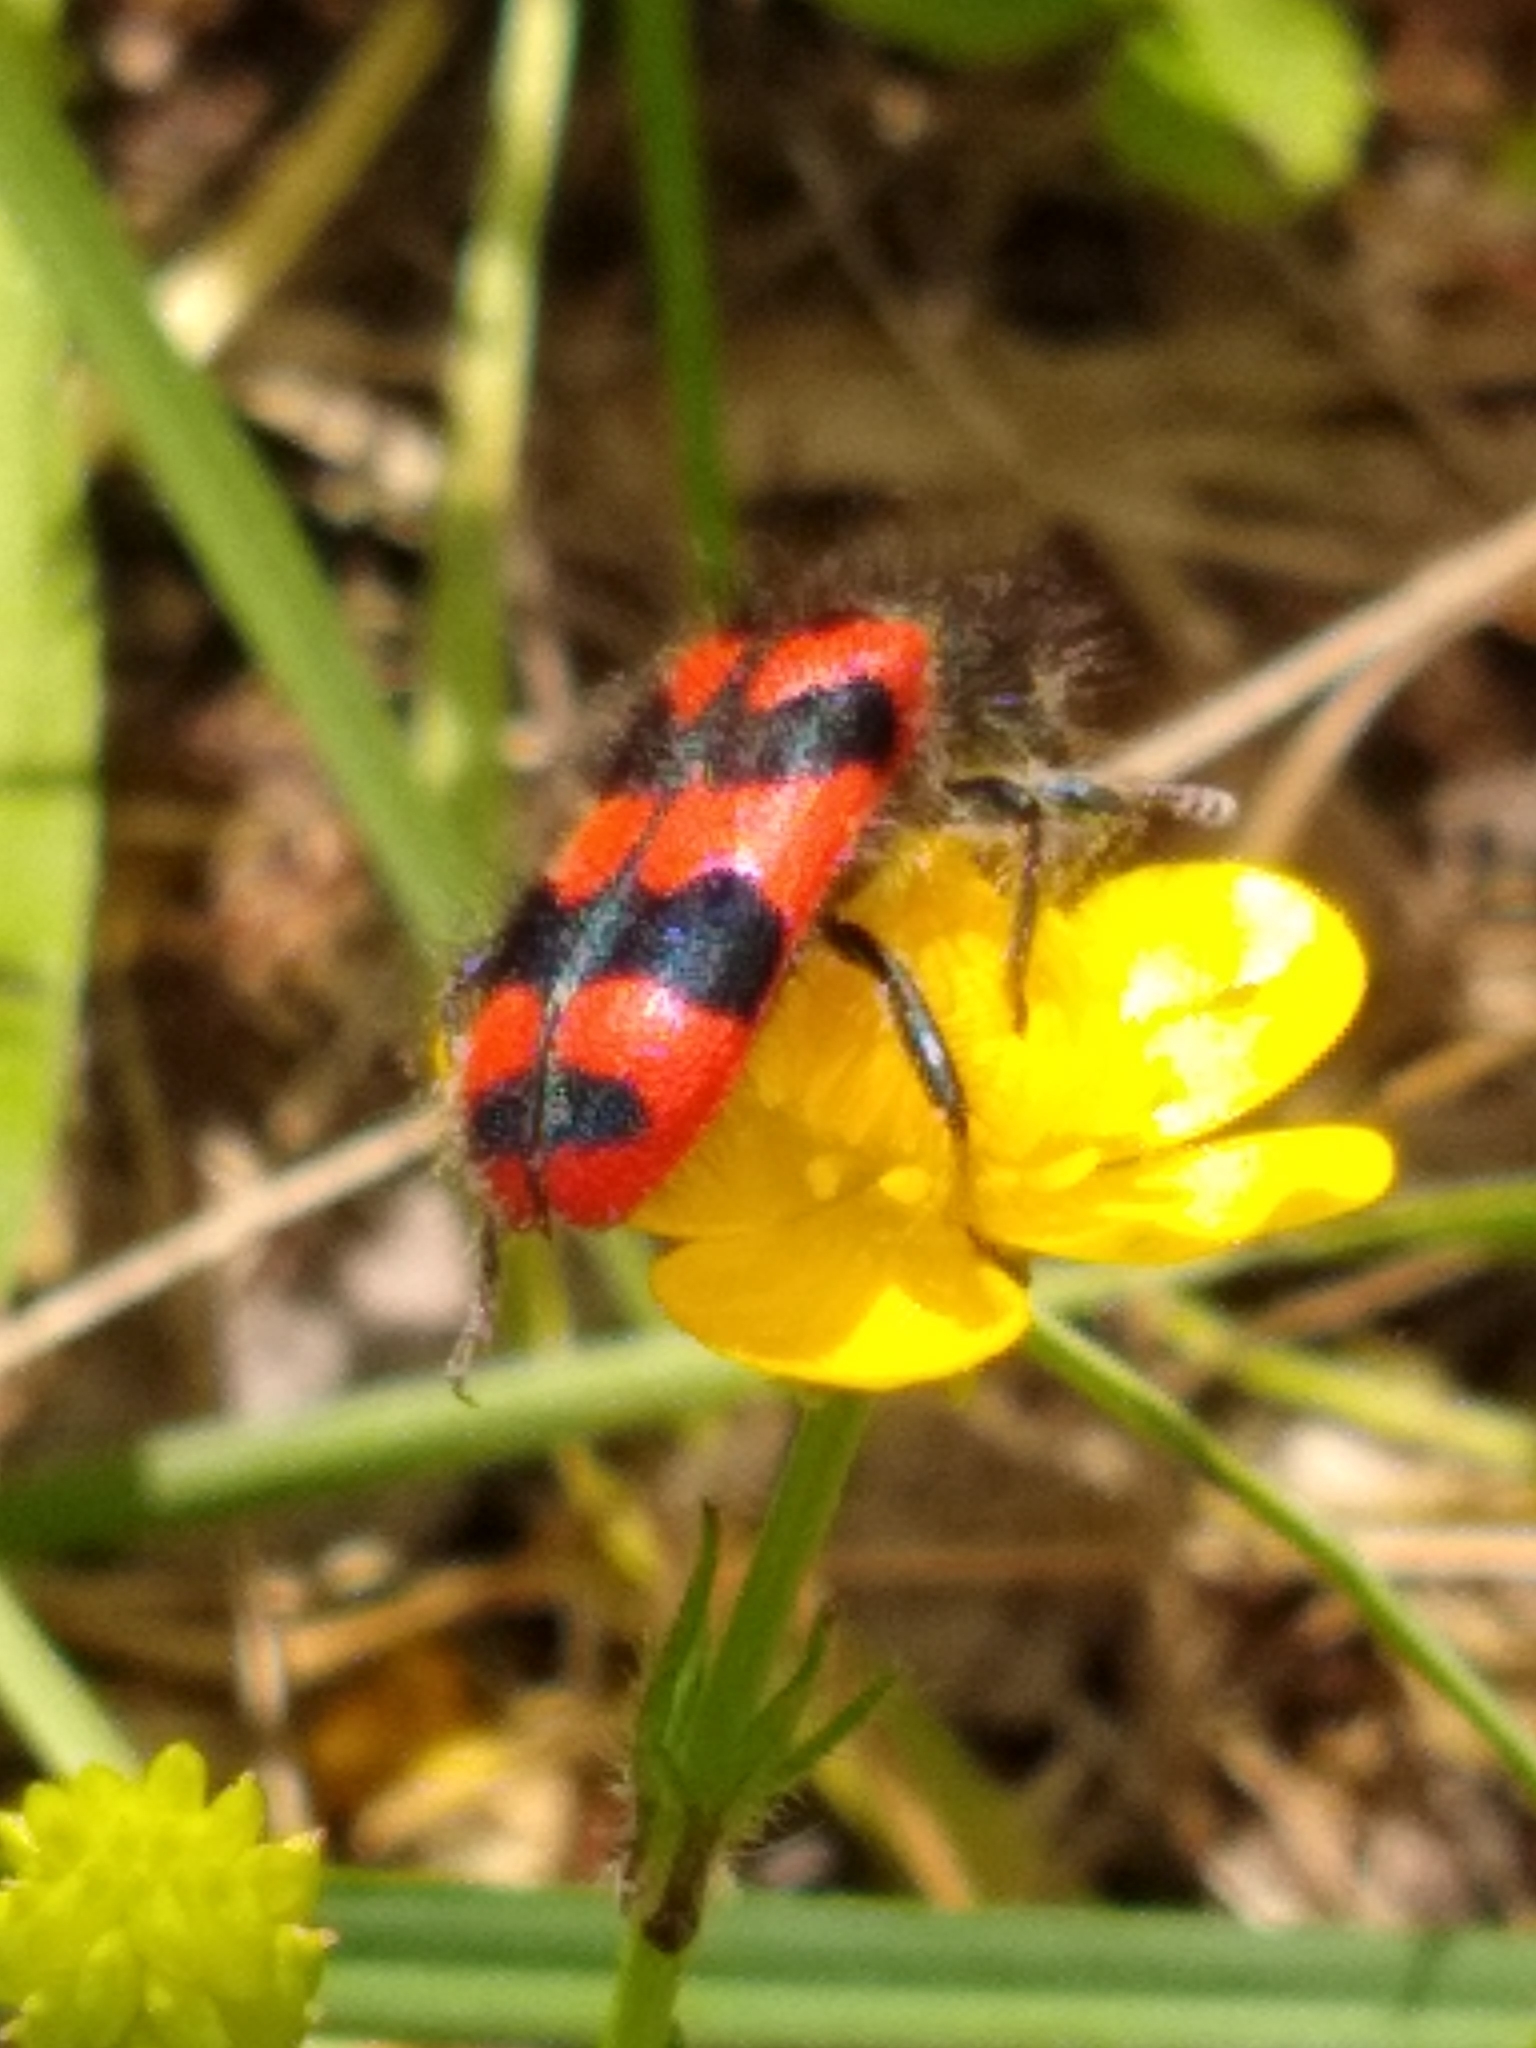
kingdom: Animalia
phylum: Arthropoda
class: Insecta
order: Coleoptera
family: Cleridae
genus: Trichodes
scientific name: Trichodes alvearius
